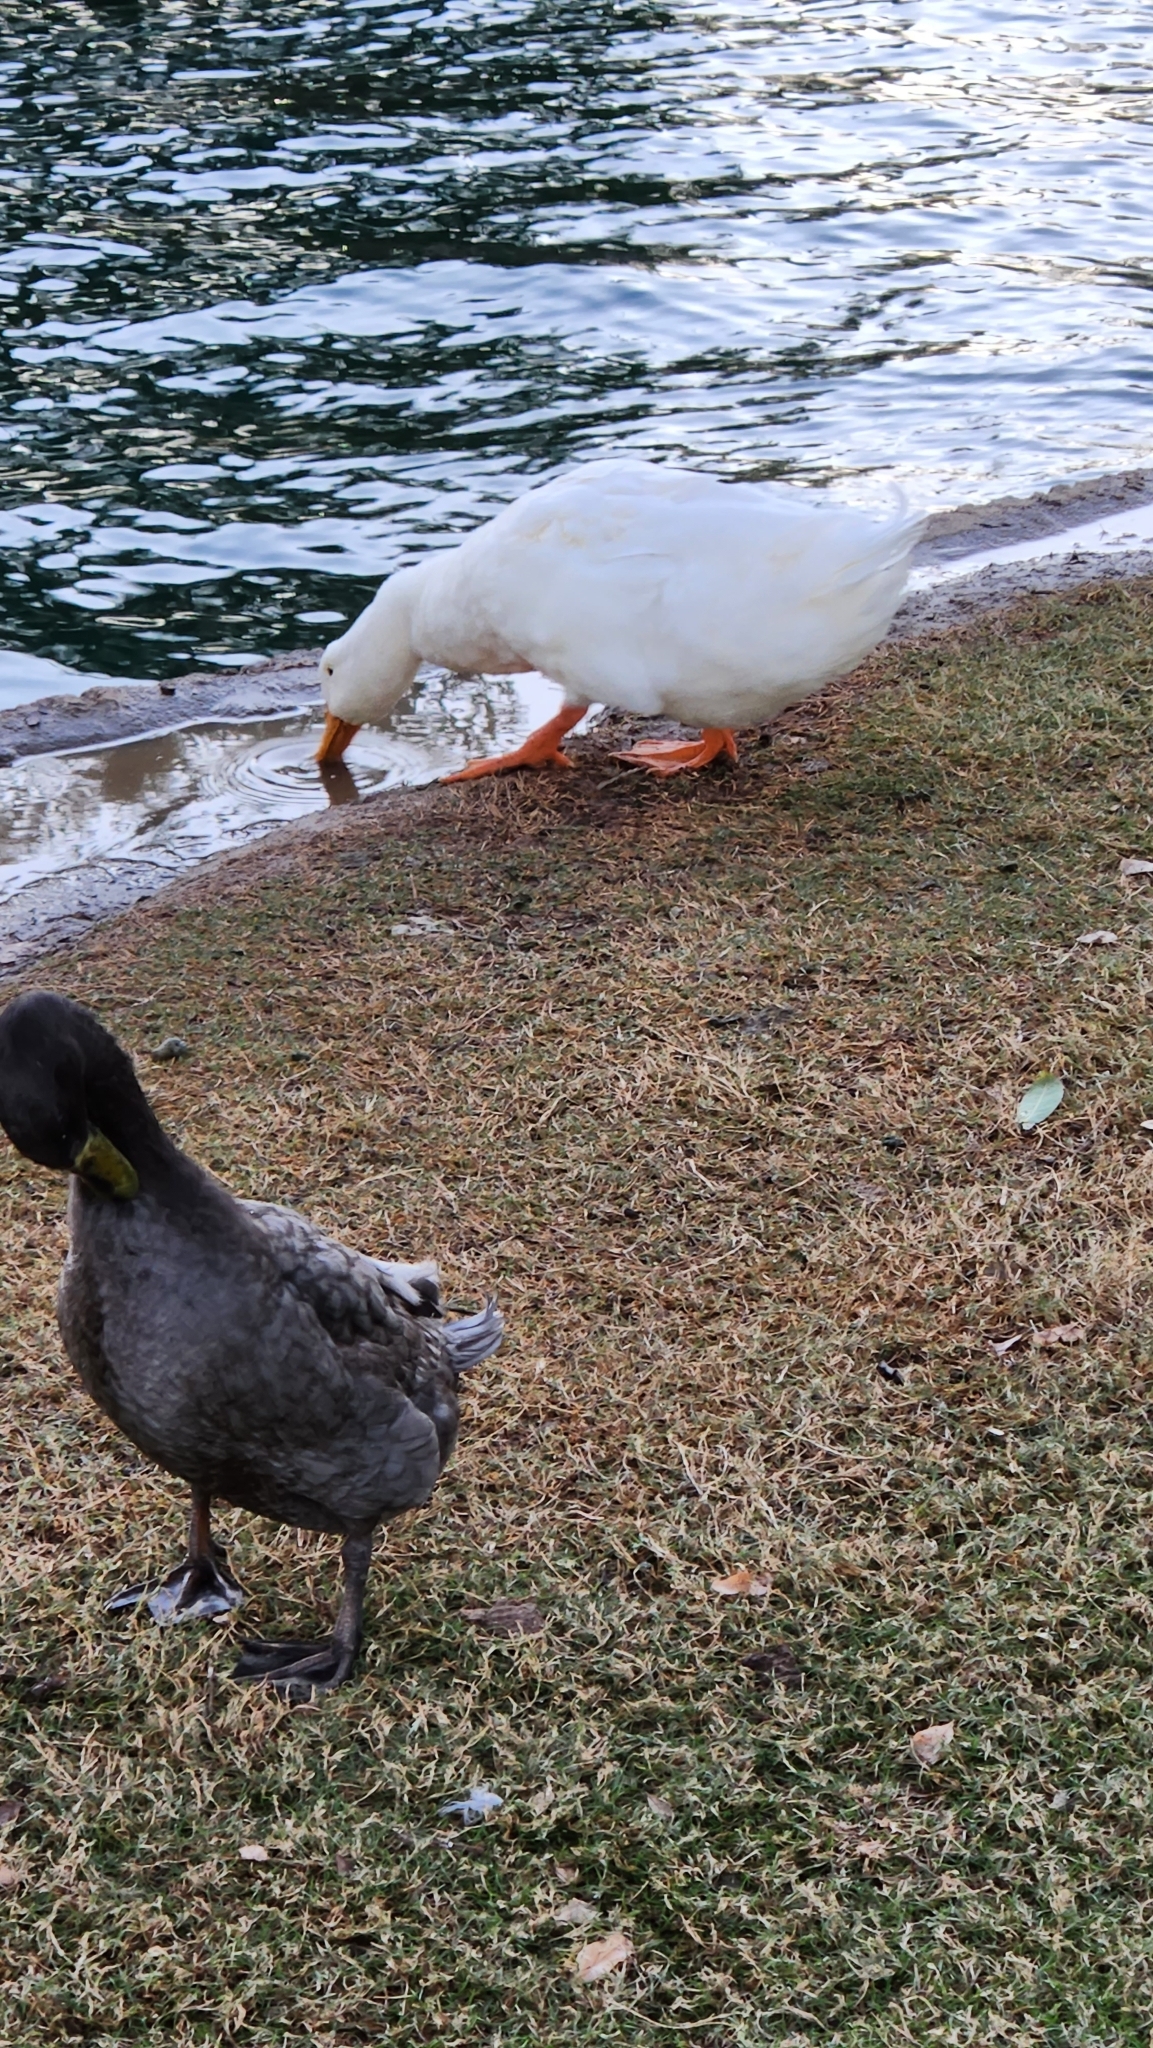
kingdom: Animalia
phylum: Chordata
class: Aves
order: Anseriformes
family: Anatidae
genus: Anas
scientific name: Anas platyrhynchos
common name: Mallard
